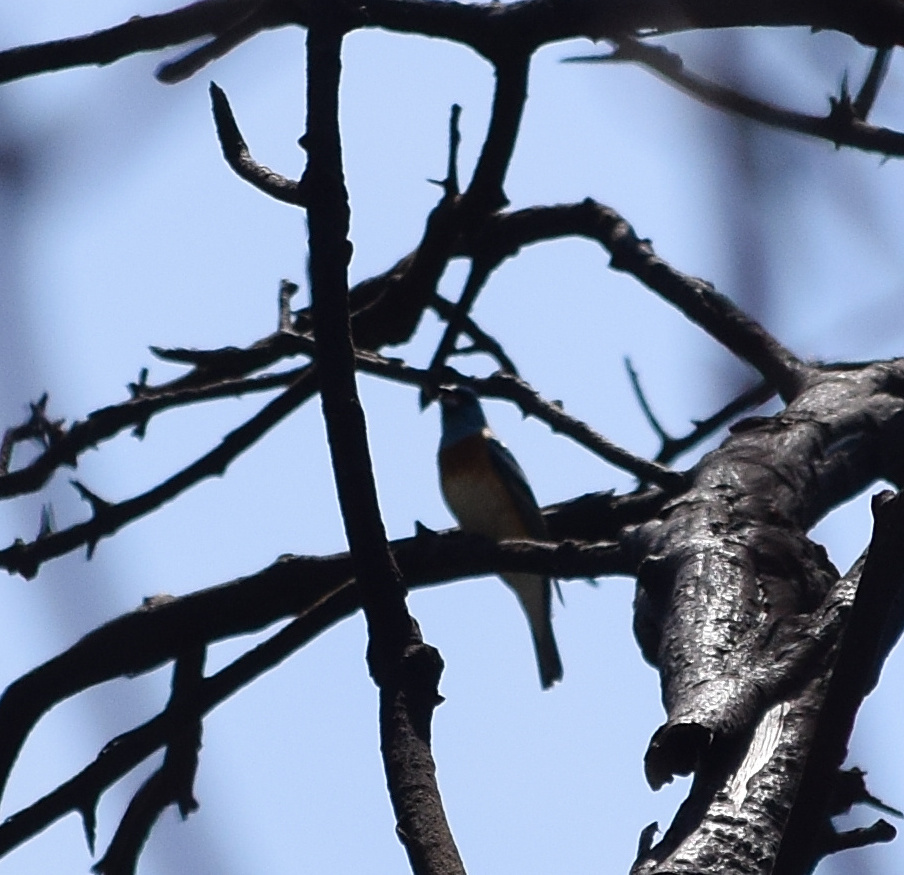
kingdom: Animalia
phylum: Chordata
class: Aves
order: Passeriformes
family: Cardinalidae
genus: Passerina
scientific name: Passerina amoena
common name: Lazuli bunting
